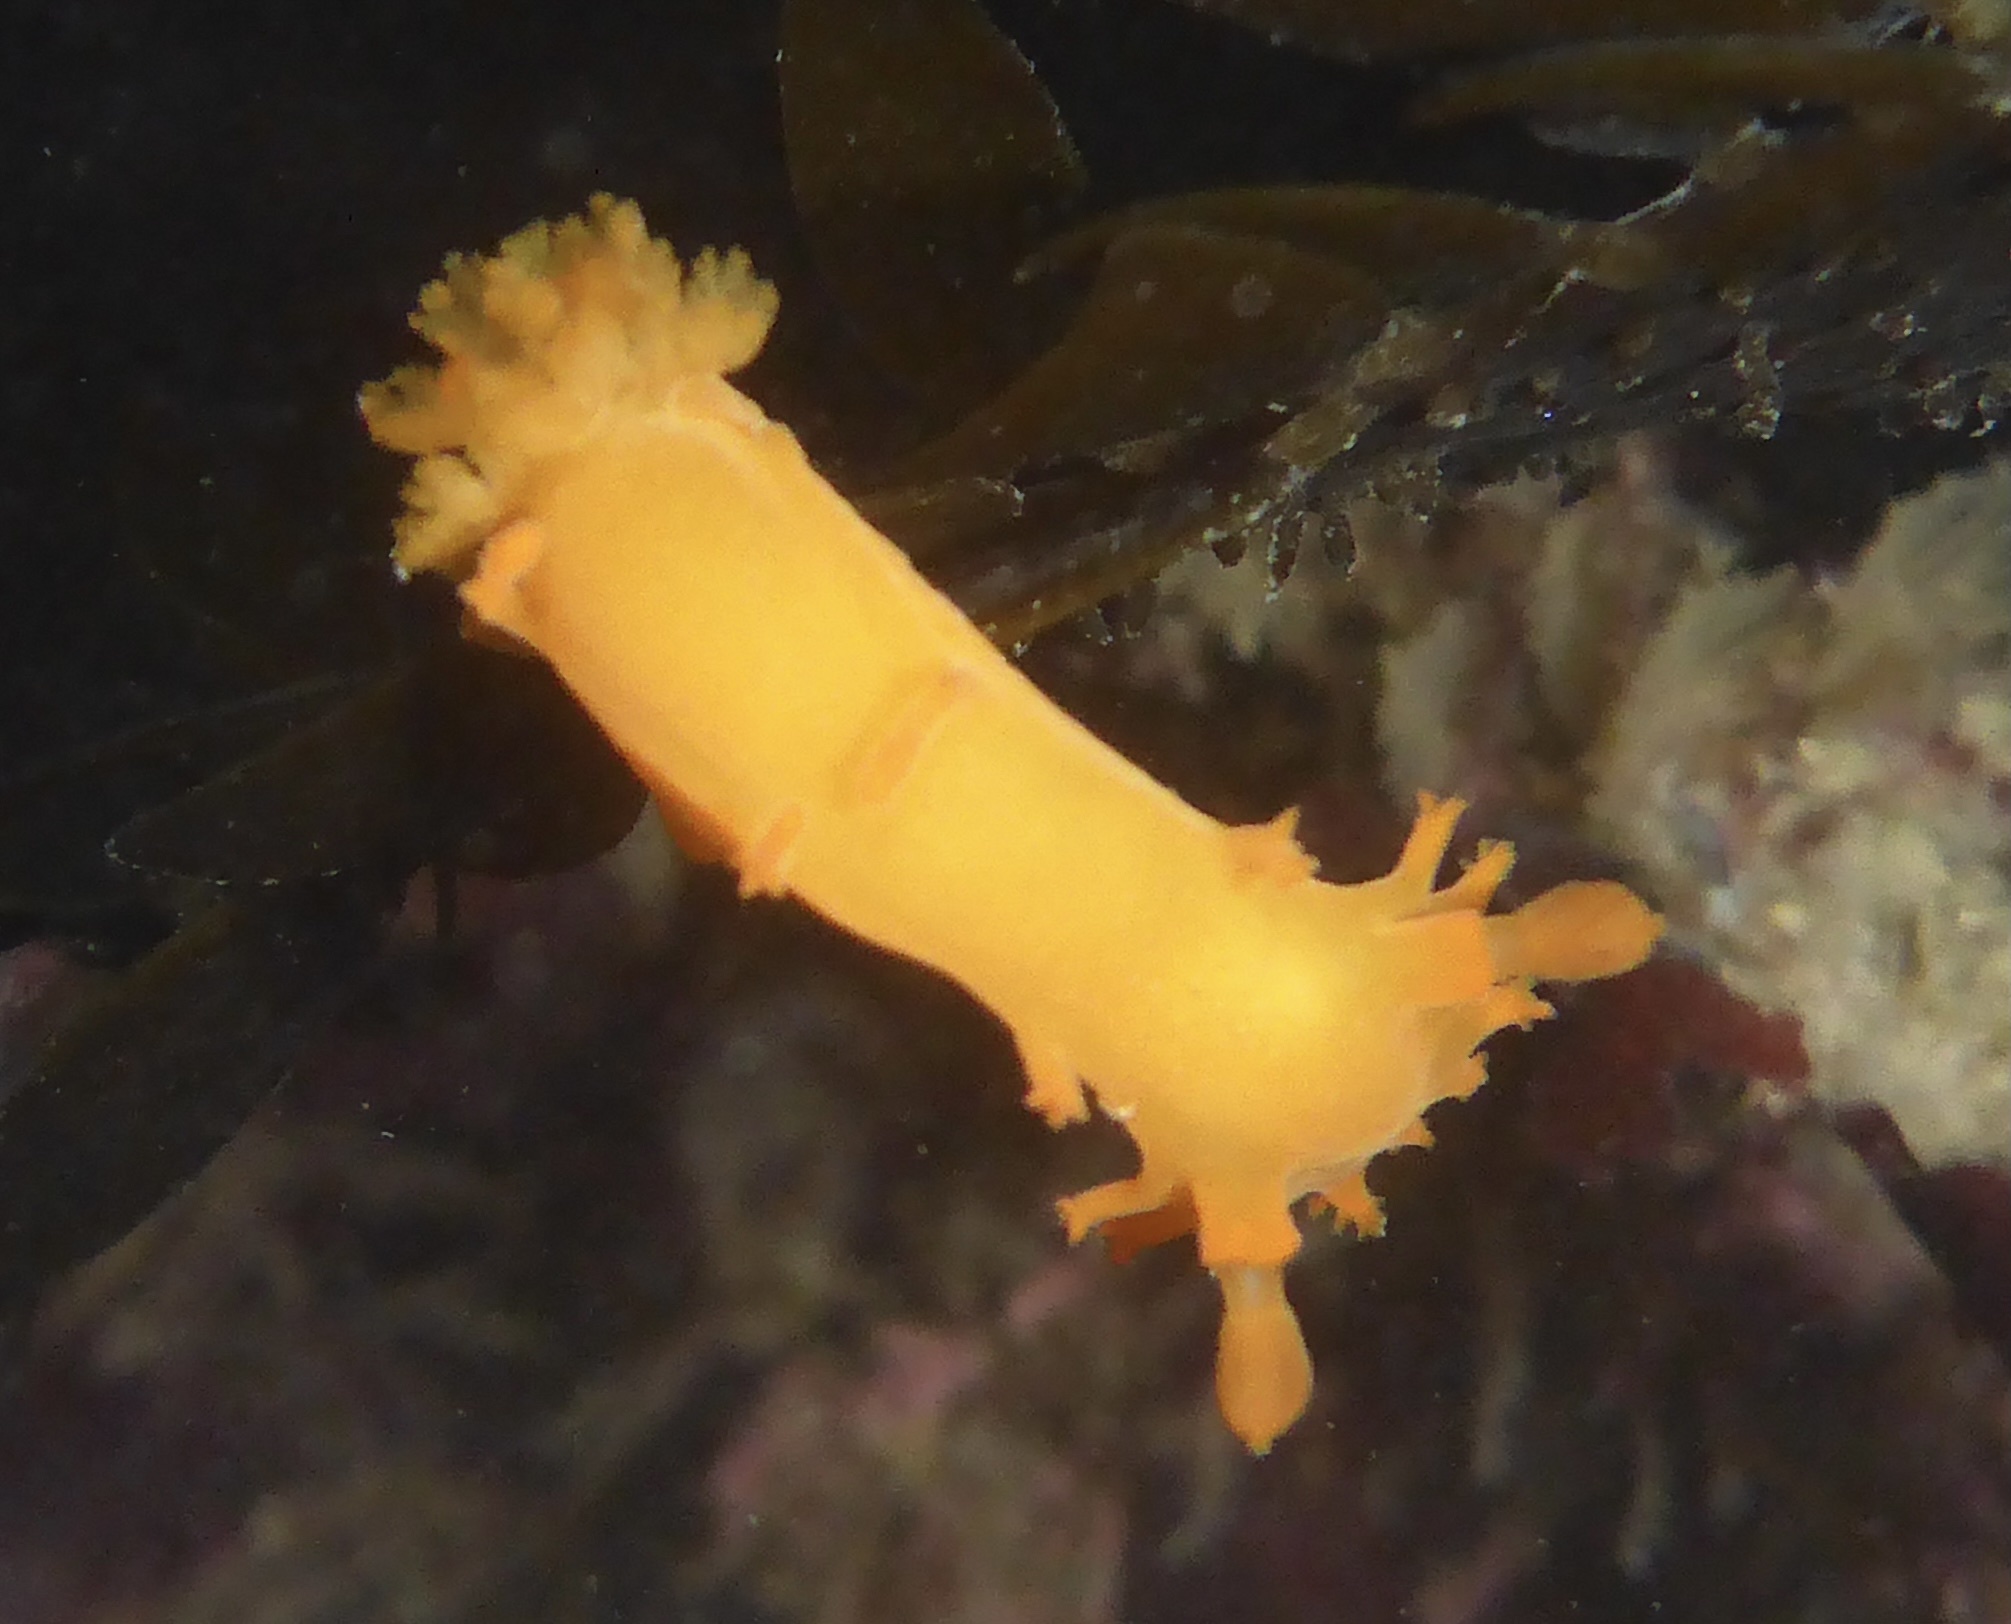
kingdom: Animalia
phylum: Mollusca
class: Gastropoda
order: Nudibranchia
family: Polyceridae
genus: Triopha
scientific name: Triopha maculata
